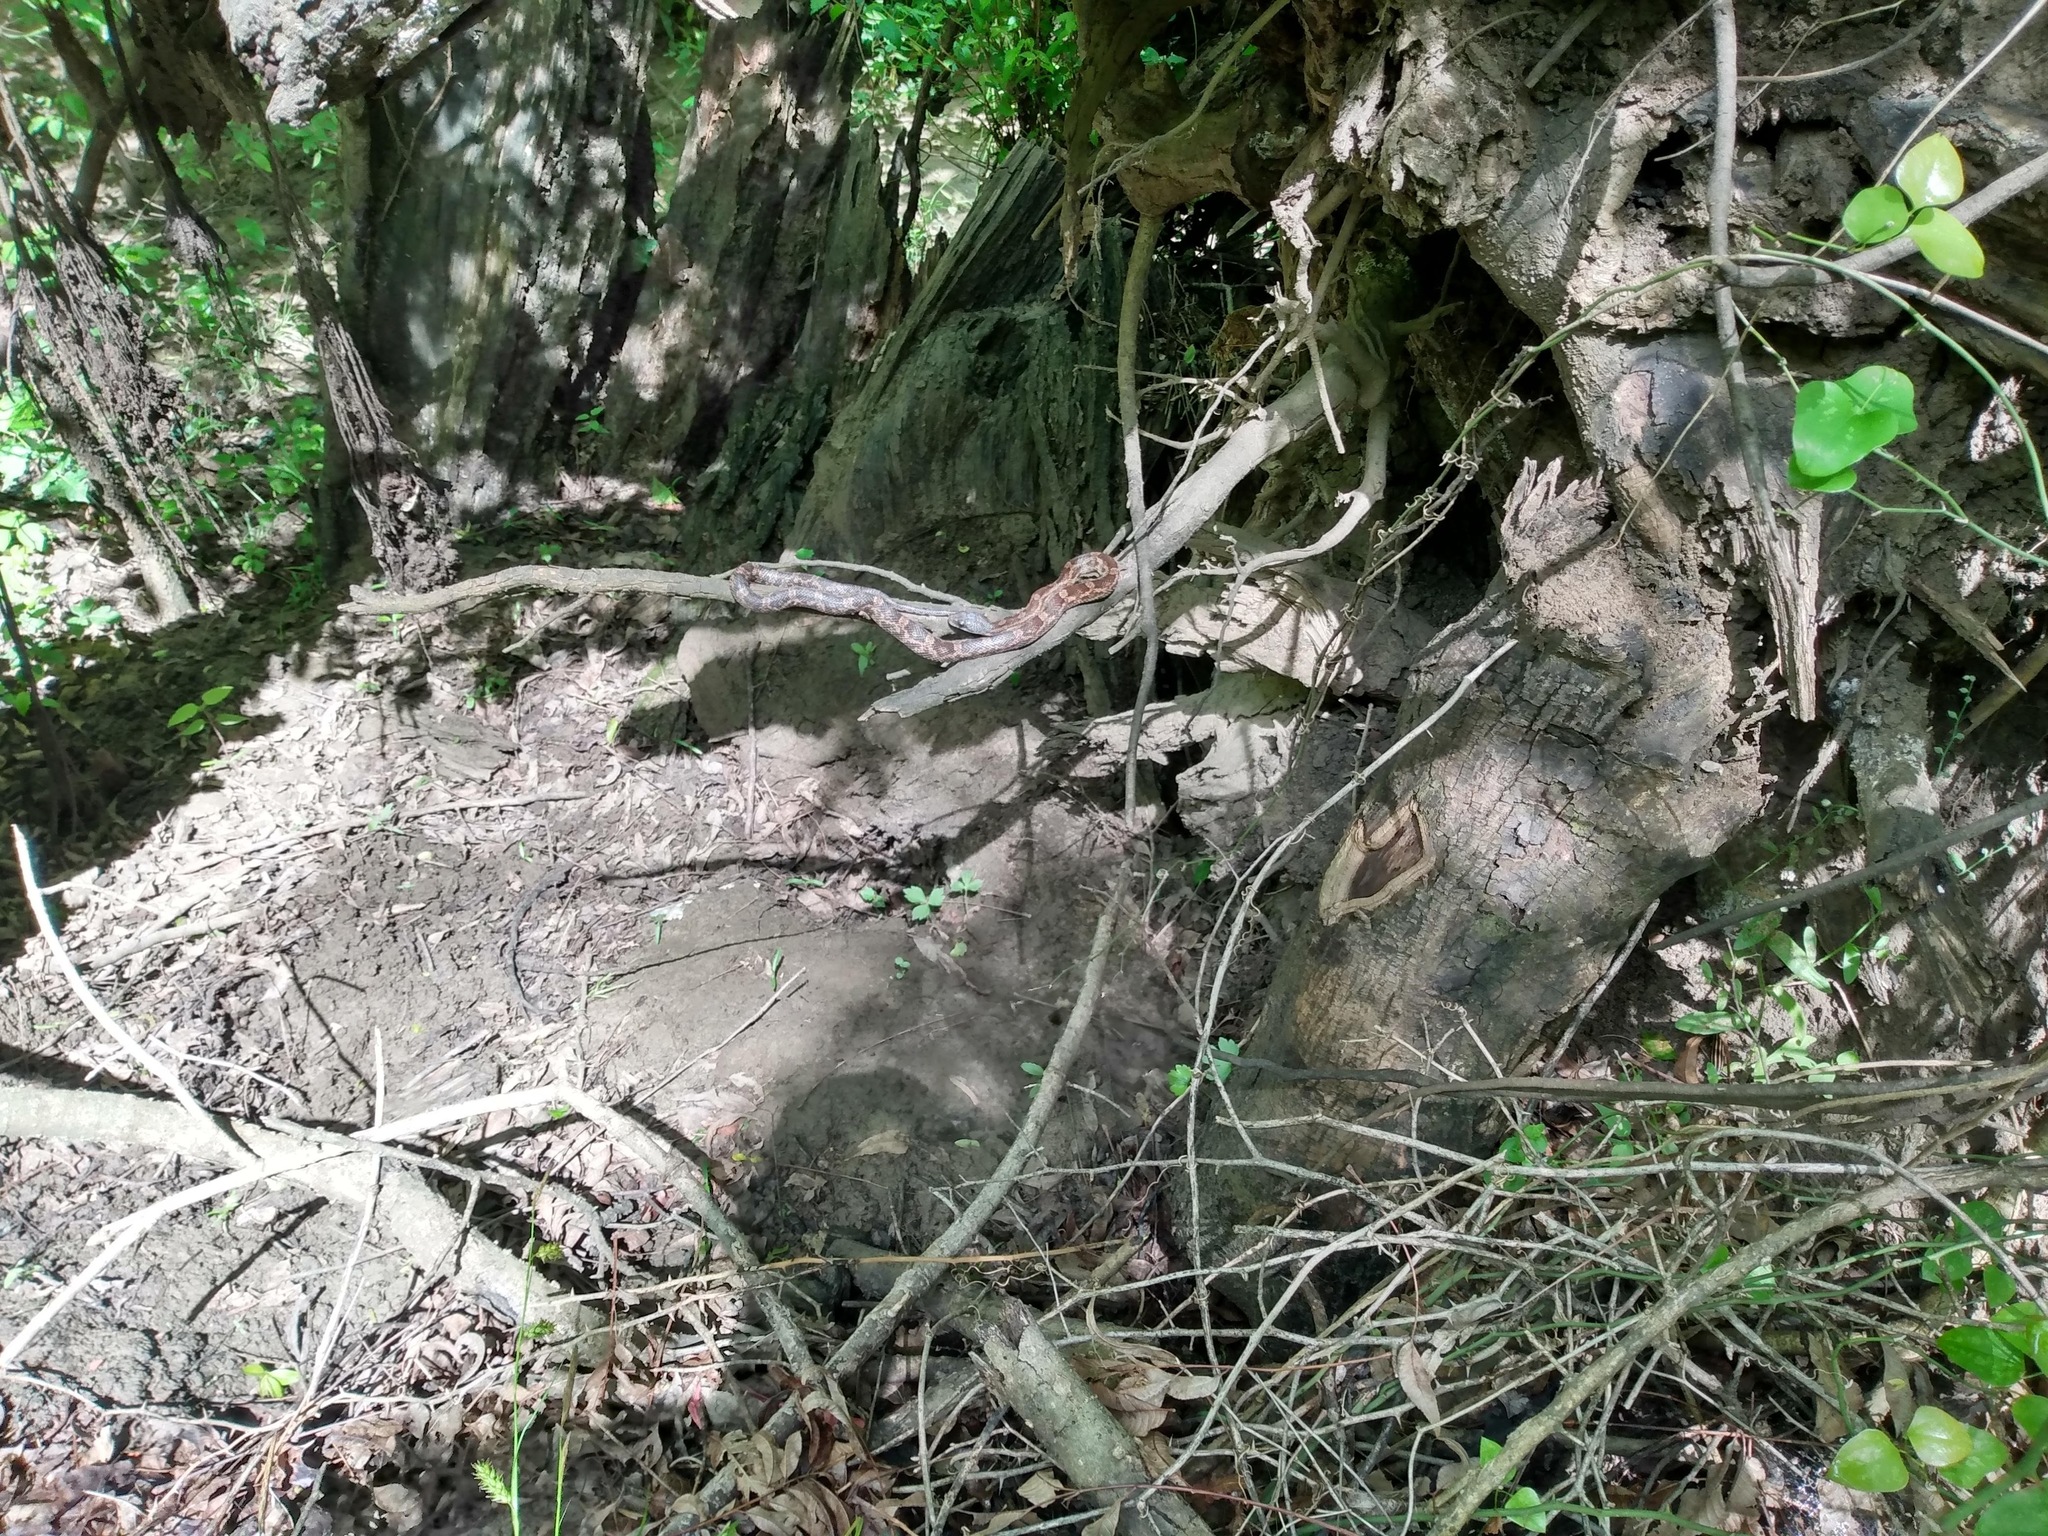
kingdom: Animalia
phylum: Chordata
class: Squamata
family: Colubridae
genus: Pantherophis
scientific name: Pantherophis obsoletus
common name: Black rat snake
